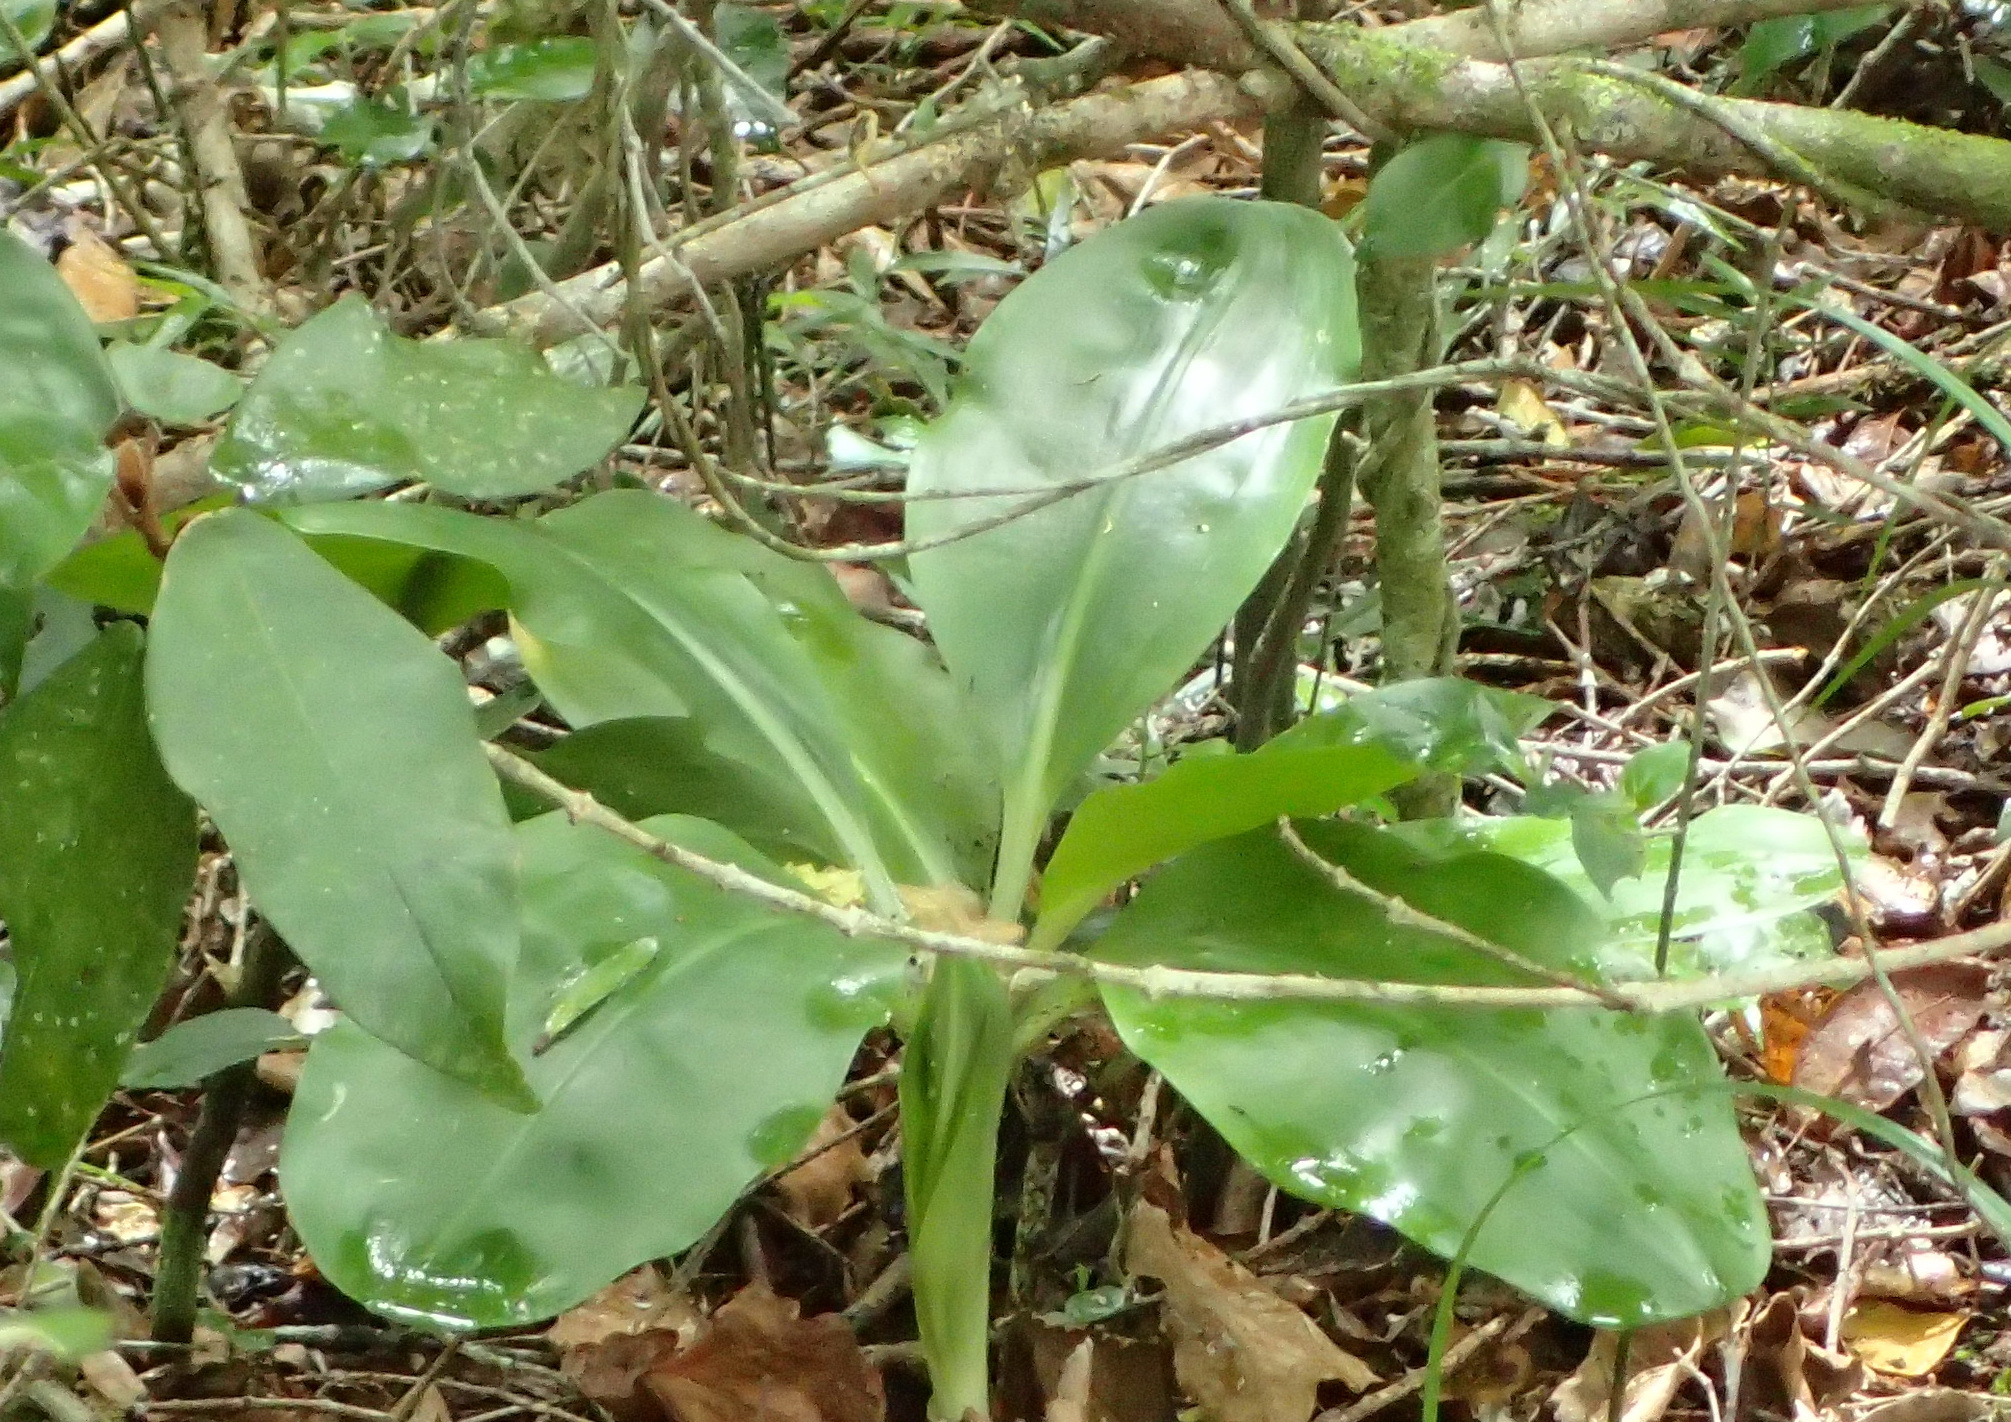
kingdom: Plantae
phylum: Tracheophyta
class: Liliopsida
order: Asparagales
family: Amaryllidaceae
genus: Scadoxus
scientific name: Scadoxus puniceus
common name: Royal-paintbrush
